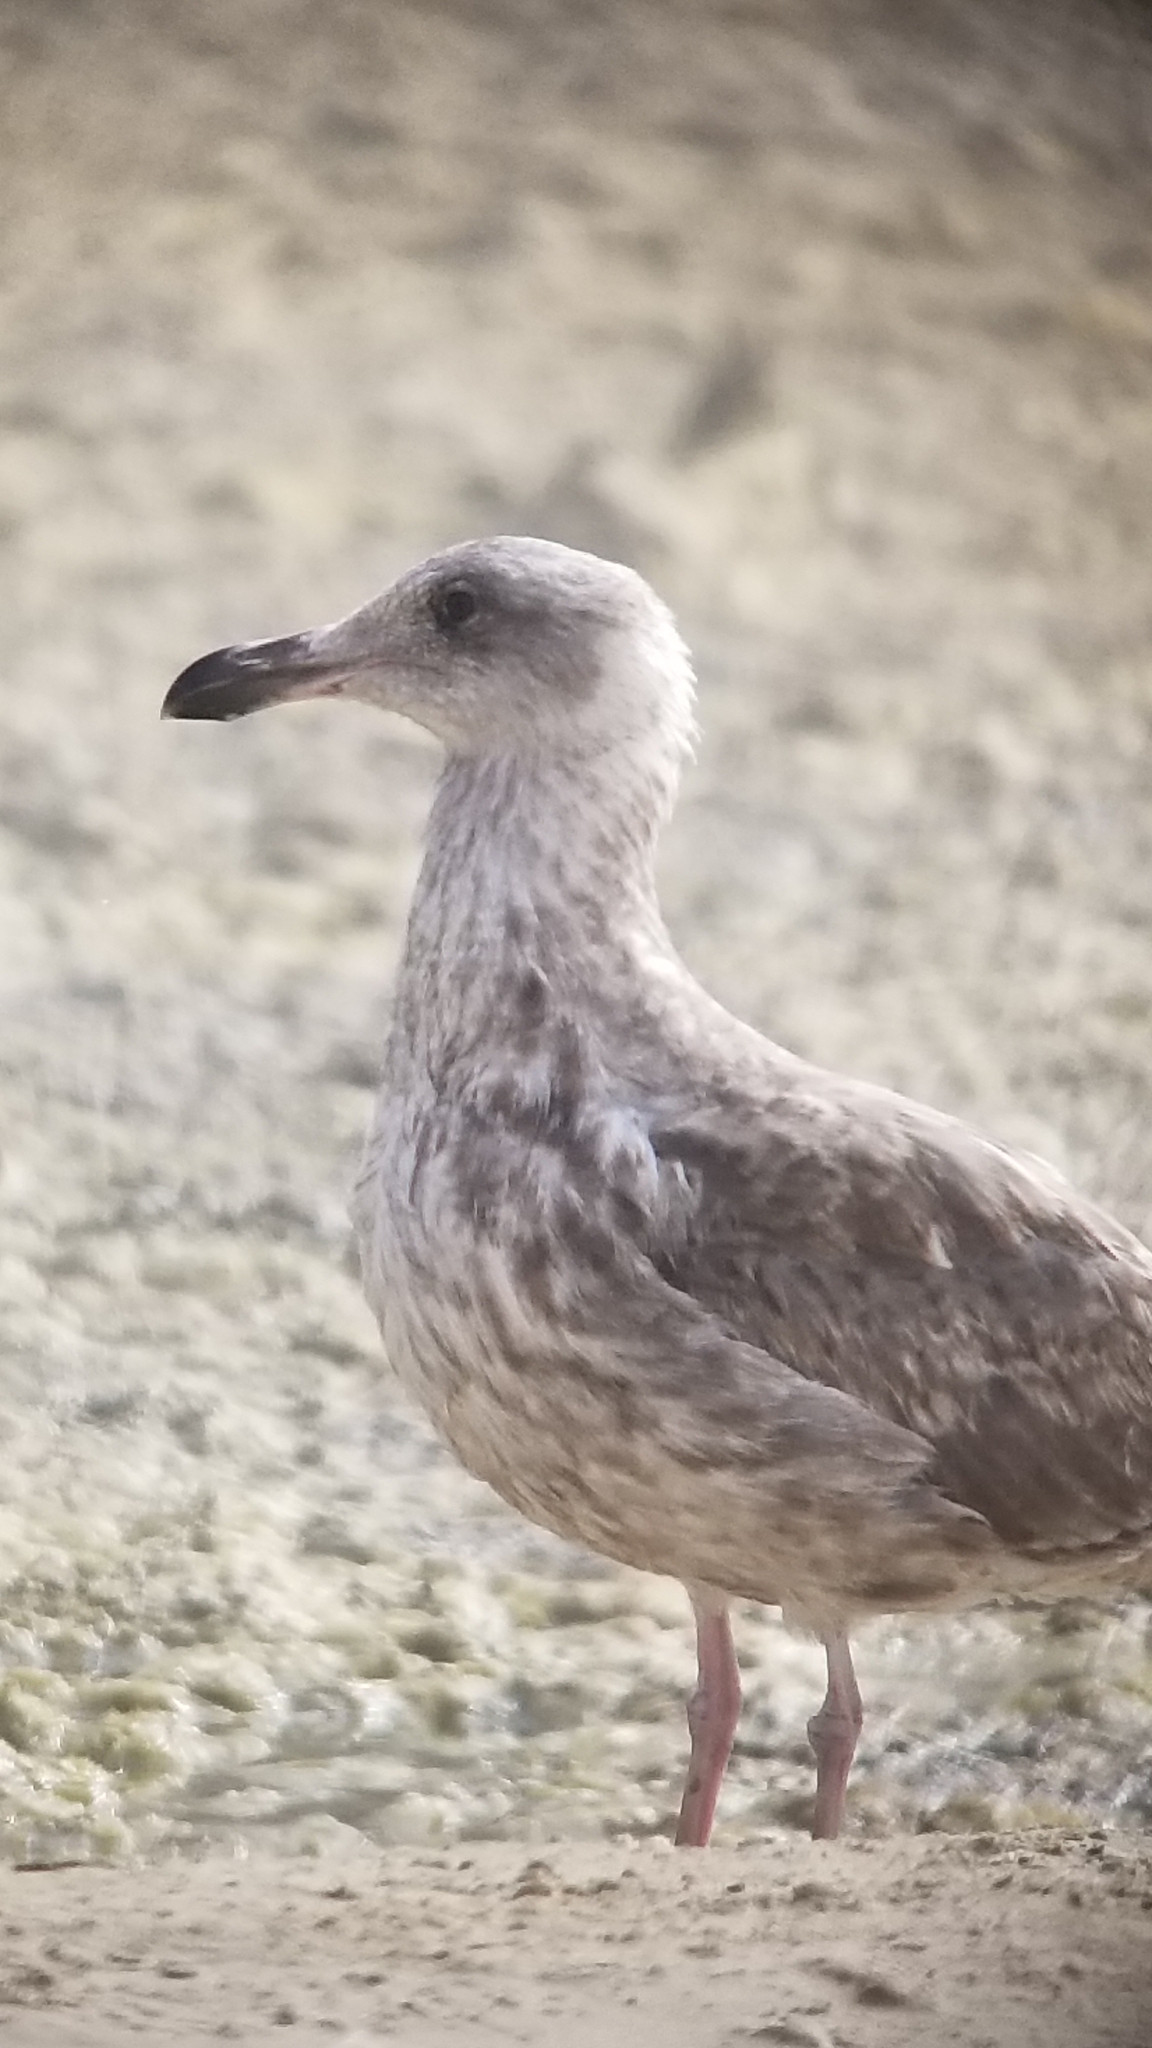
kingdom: Animalia
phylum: Chordata
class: Aves
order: Charadriiformes
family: Laridae
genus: Larus
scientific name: Larus occidentalis
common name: Western gull
